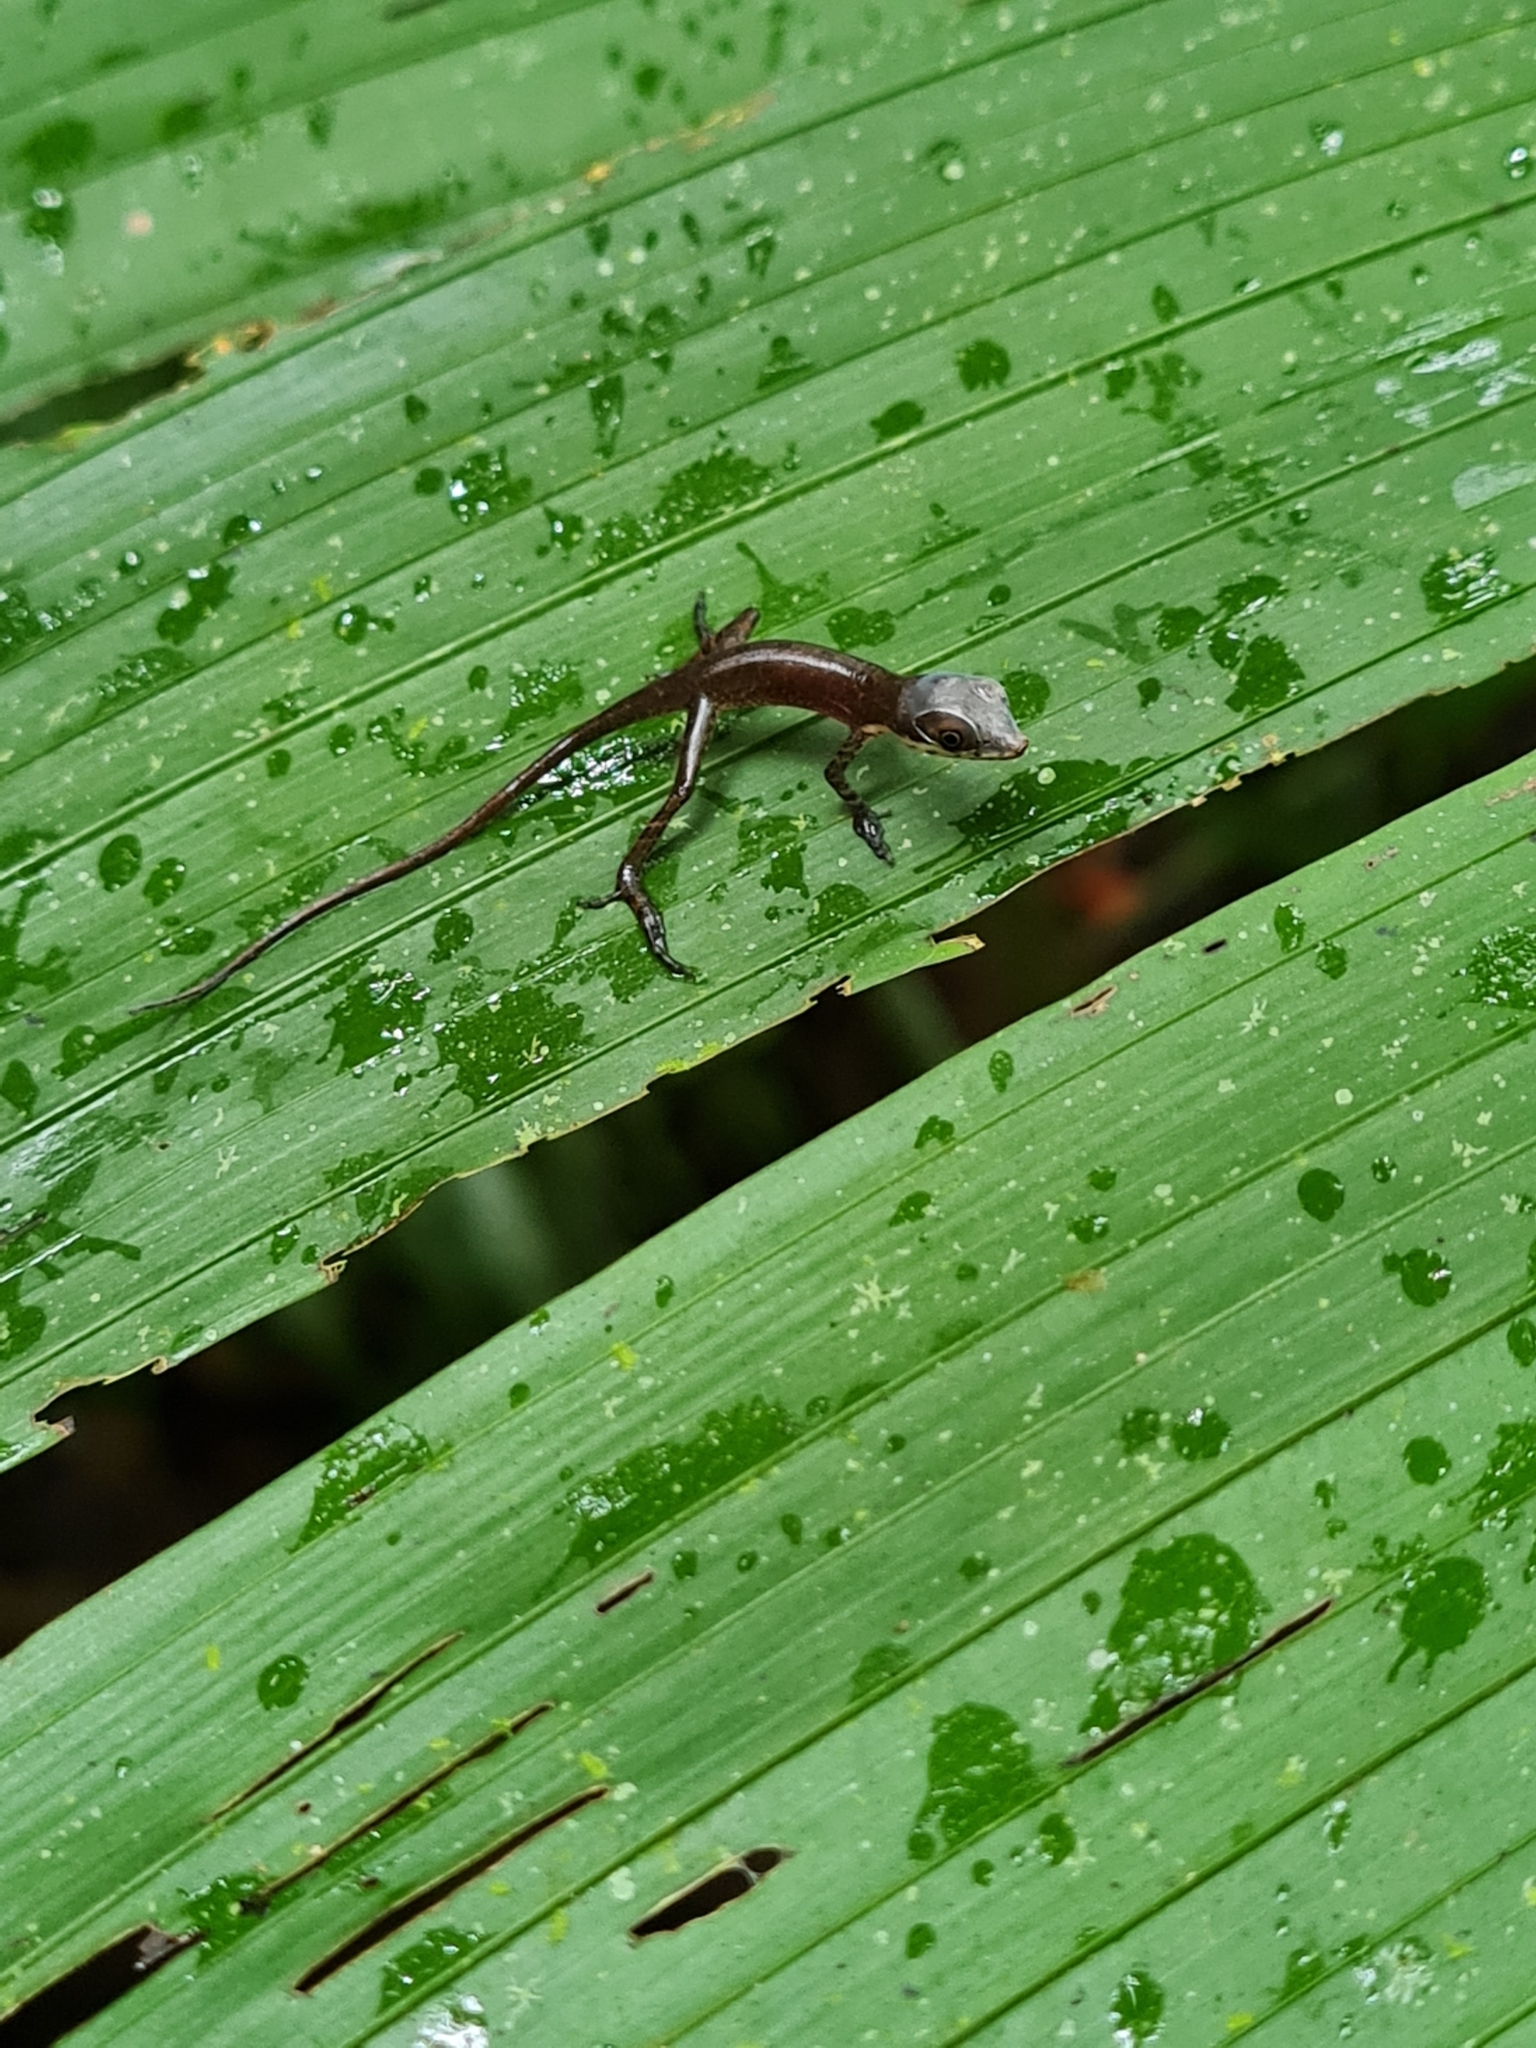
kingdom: Animalia
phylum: Chordata
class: Squamata
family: Dactyloidae
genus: Anolis
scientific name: Anolis poecilopus
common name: Dappled anole
